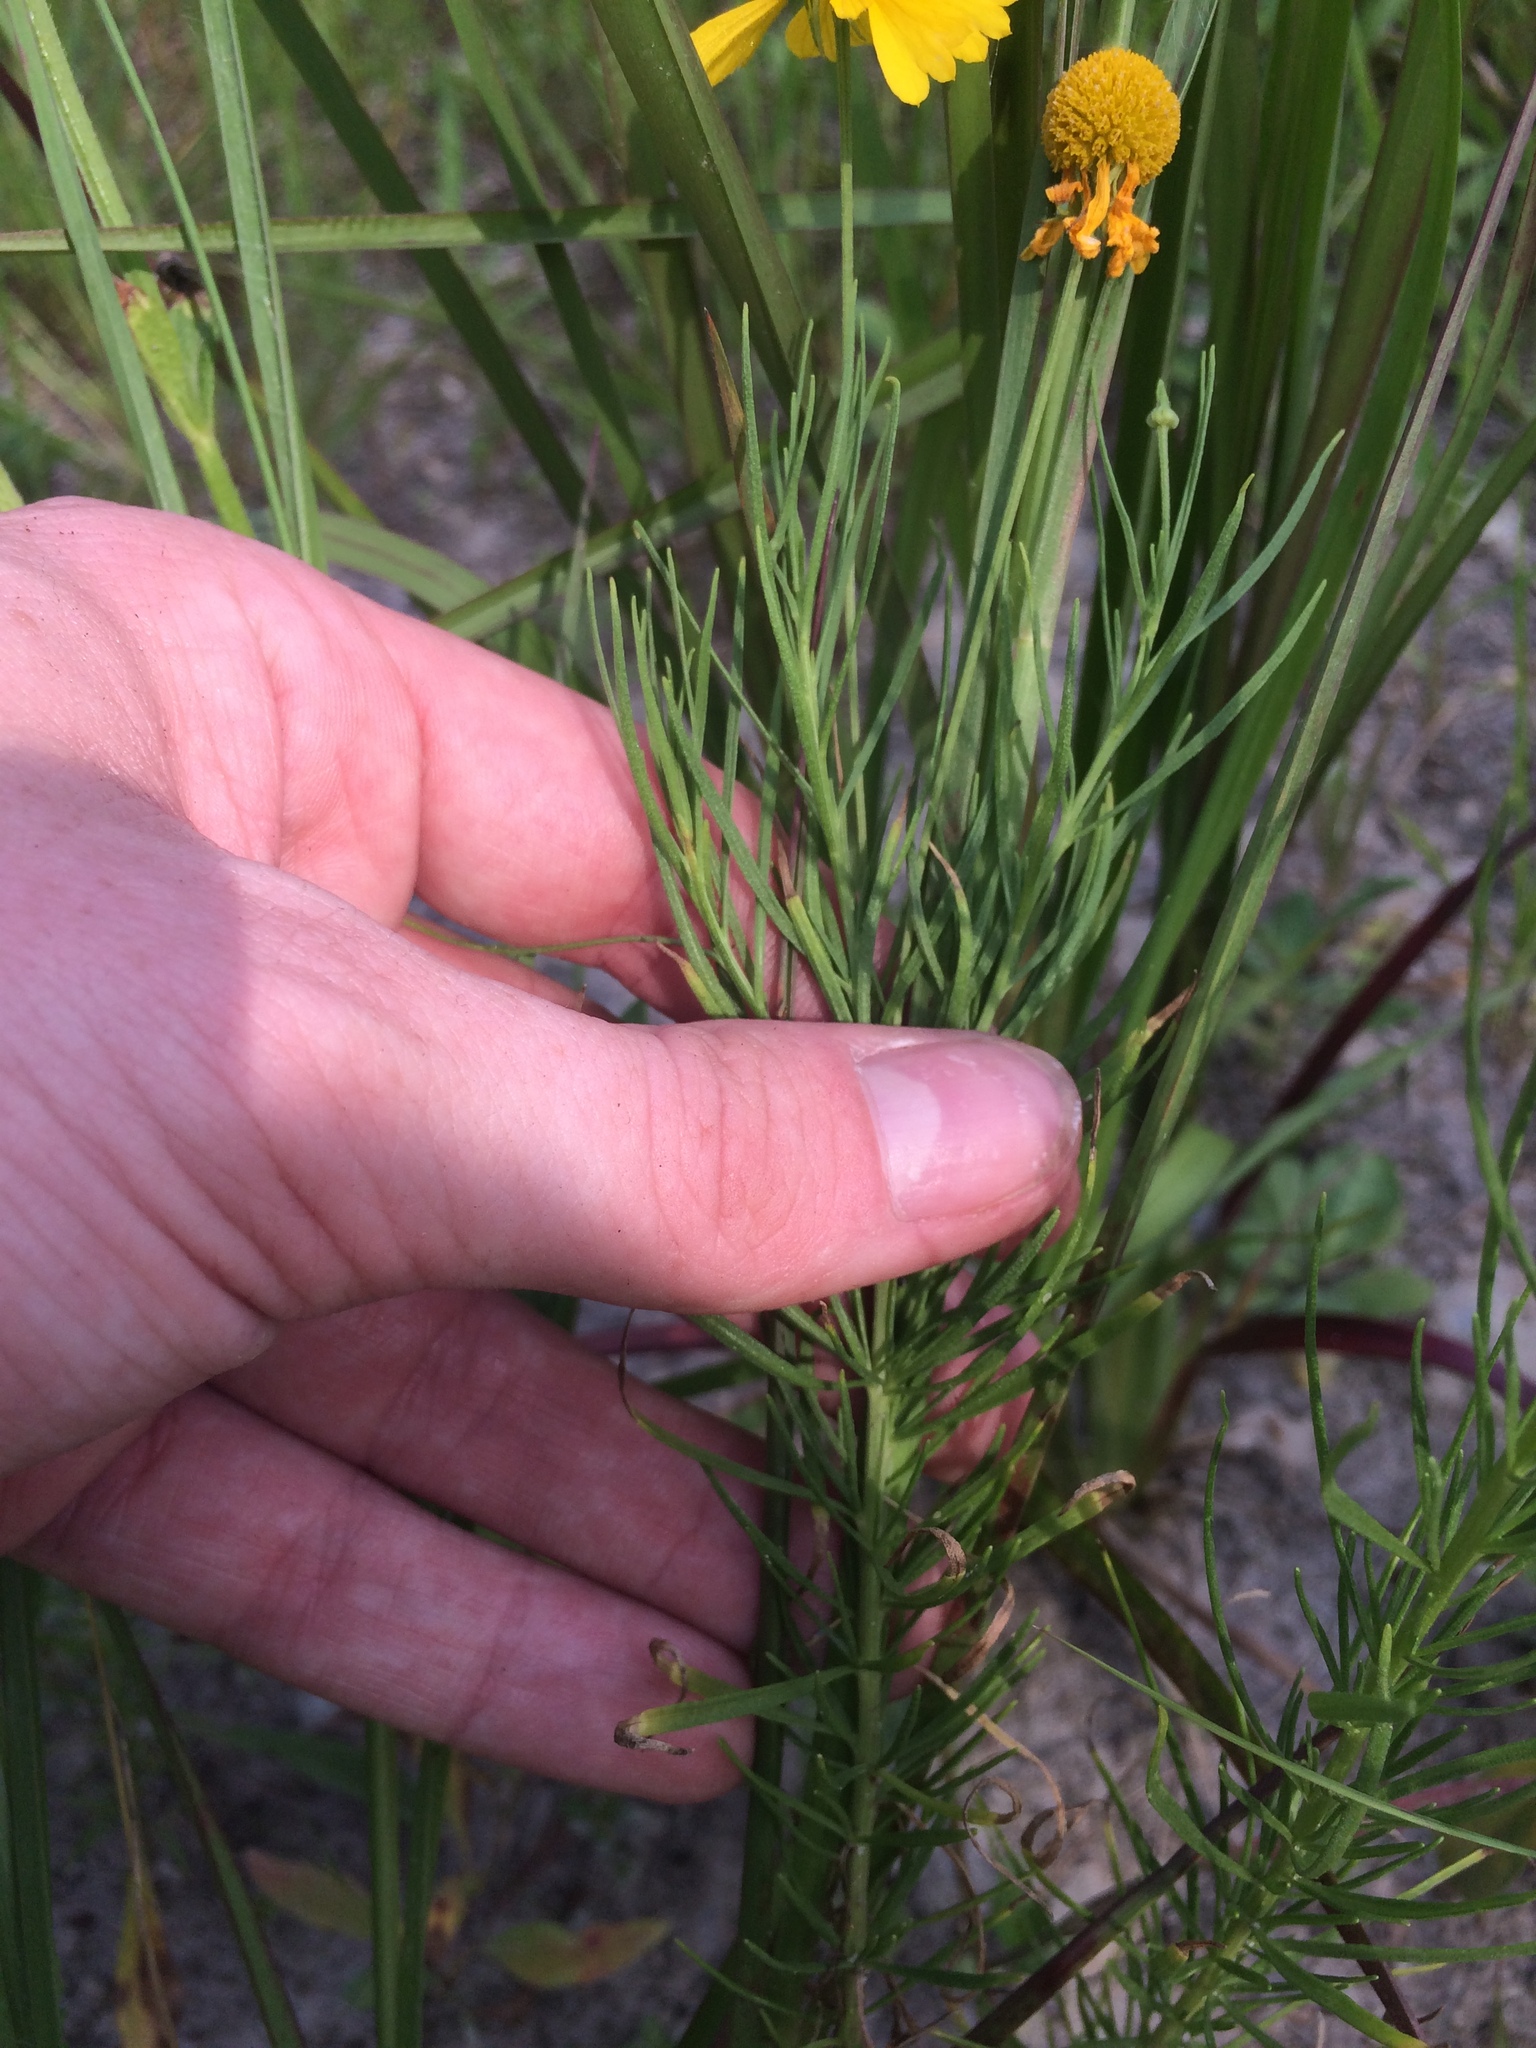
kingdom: Plantae
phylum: Tracheophyta
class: Magnoliopsida
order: Asterales
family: Asteraceae
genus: Helenium
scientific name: Helenium amarum
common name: Bitter sneezeweed
